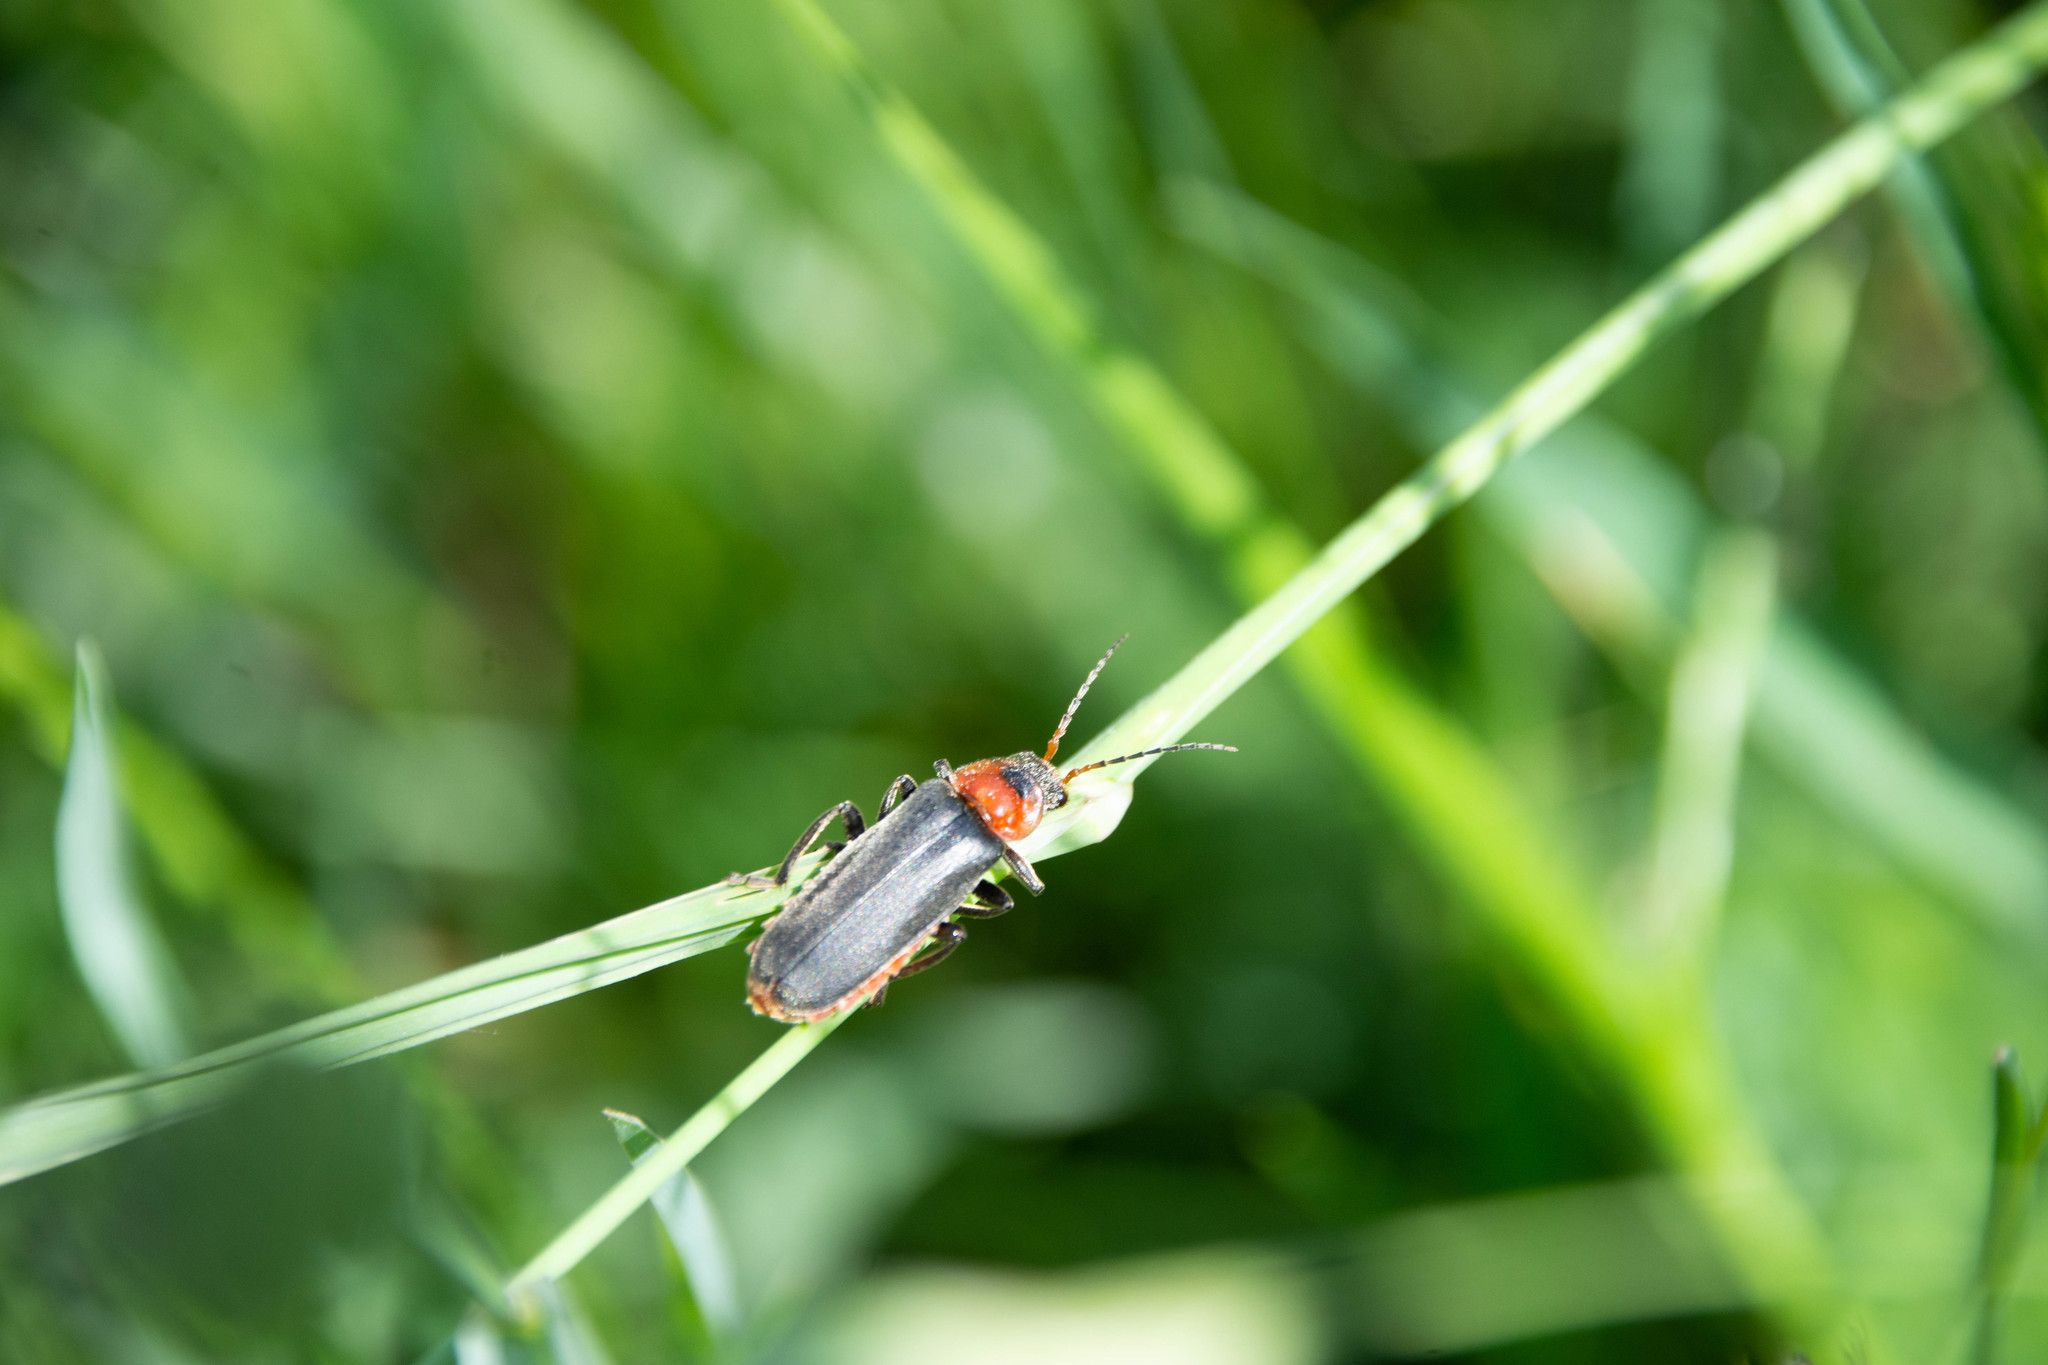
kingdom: Animalia
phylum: Arthropoda
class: Insecta
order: Coleoptera
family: Cantharidae
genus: Cantharis
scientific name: Cantharis fusca
